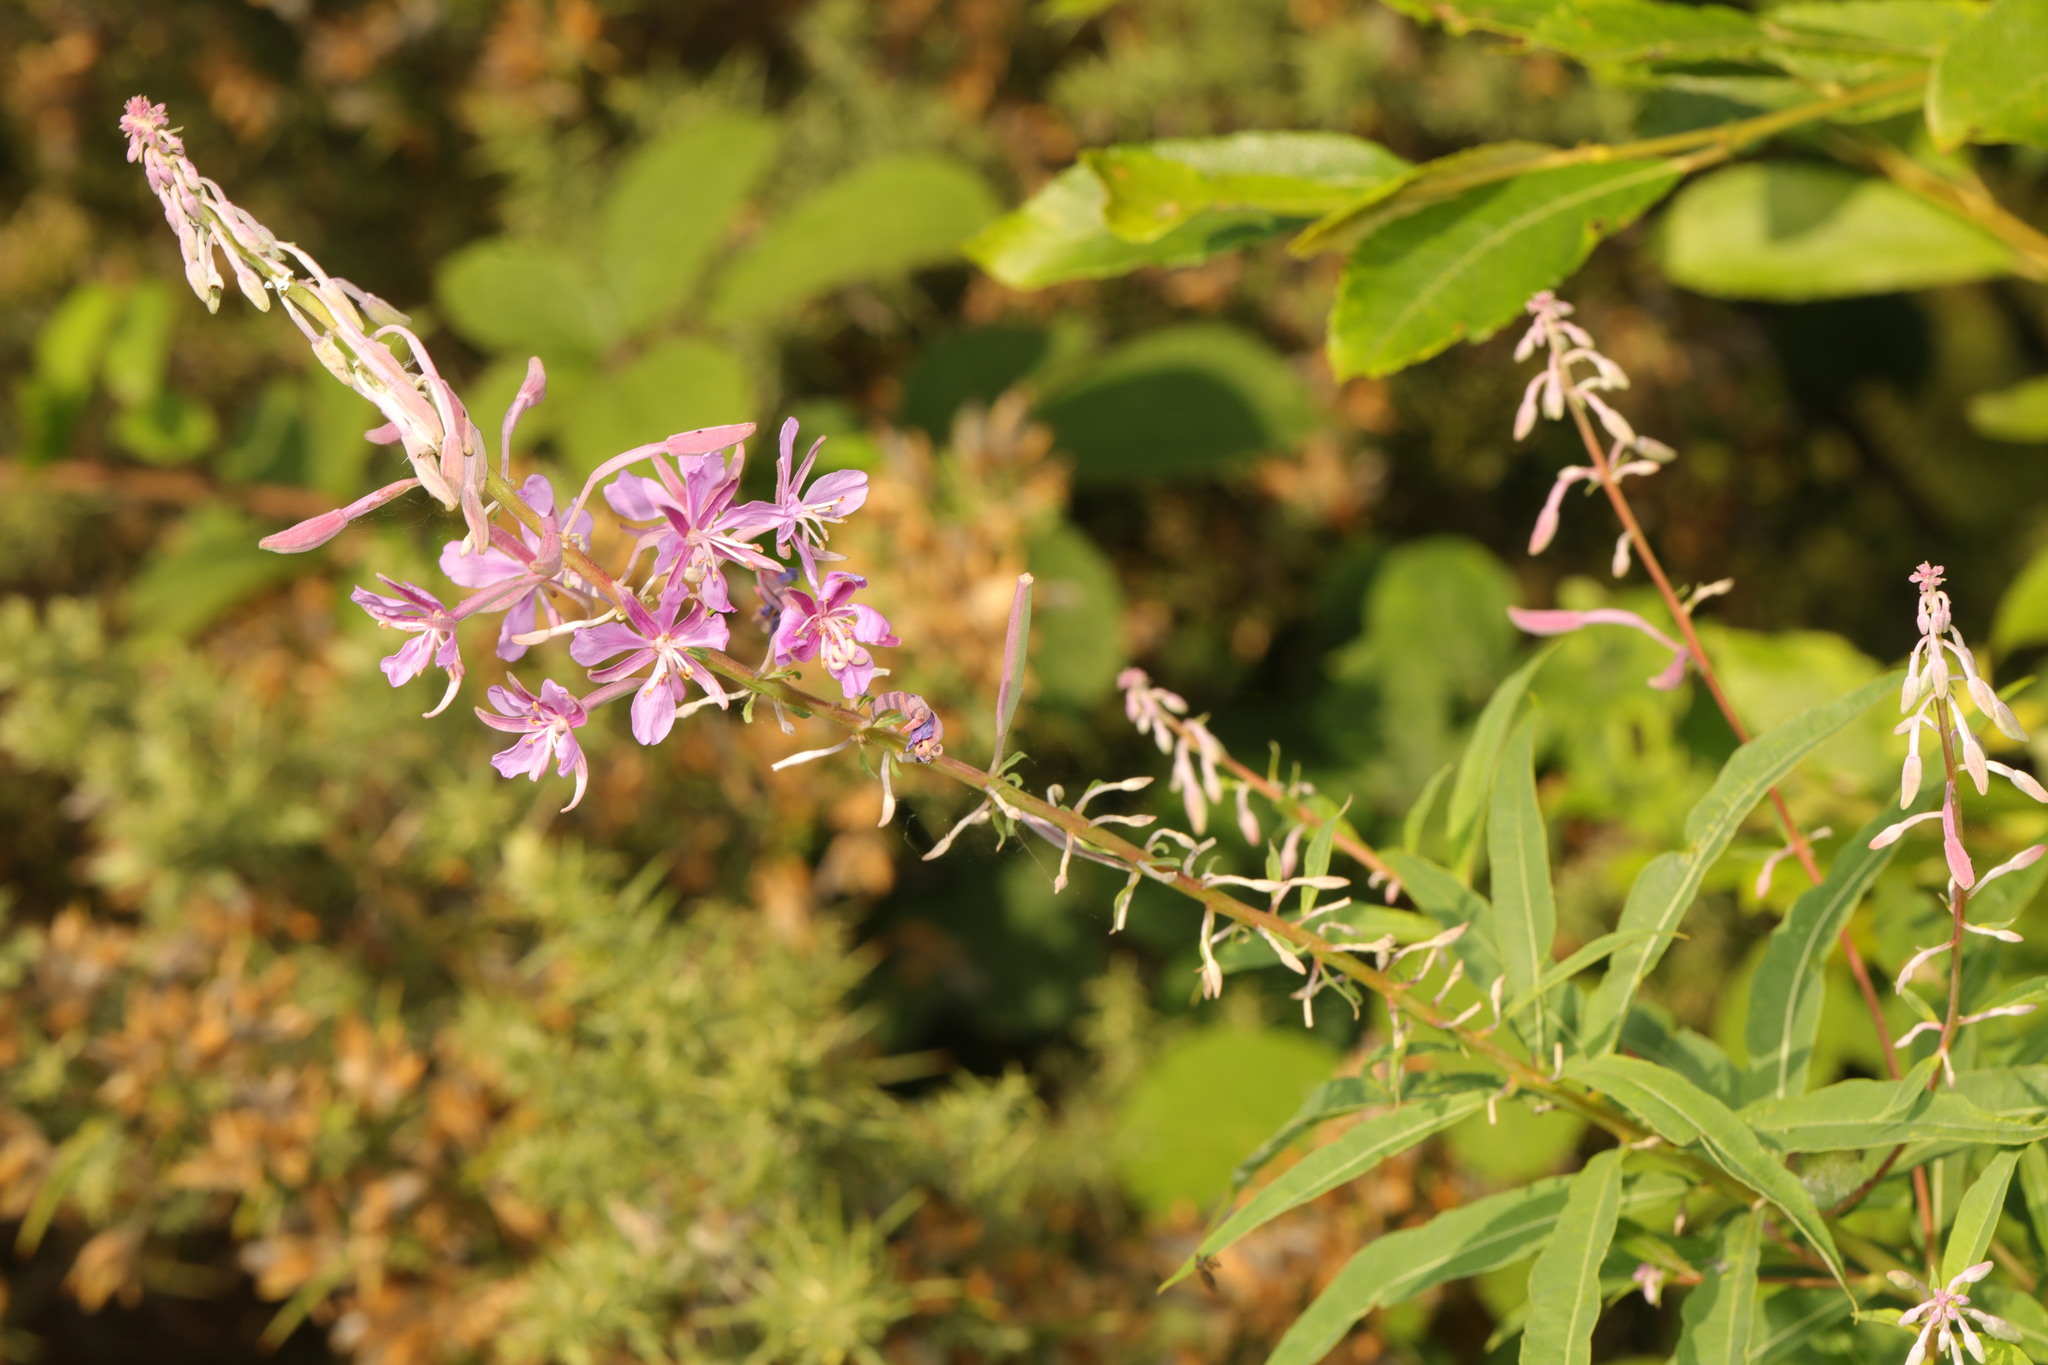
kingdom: Plantae
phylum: Tracheophyta
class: Magnoliopsida
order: Myrtales
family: Onagraceae
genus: Chamaenerion
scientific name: Chamaenerion angustifolium
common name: Fireweed
